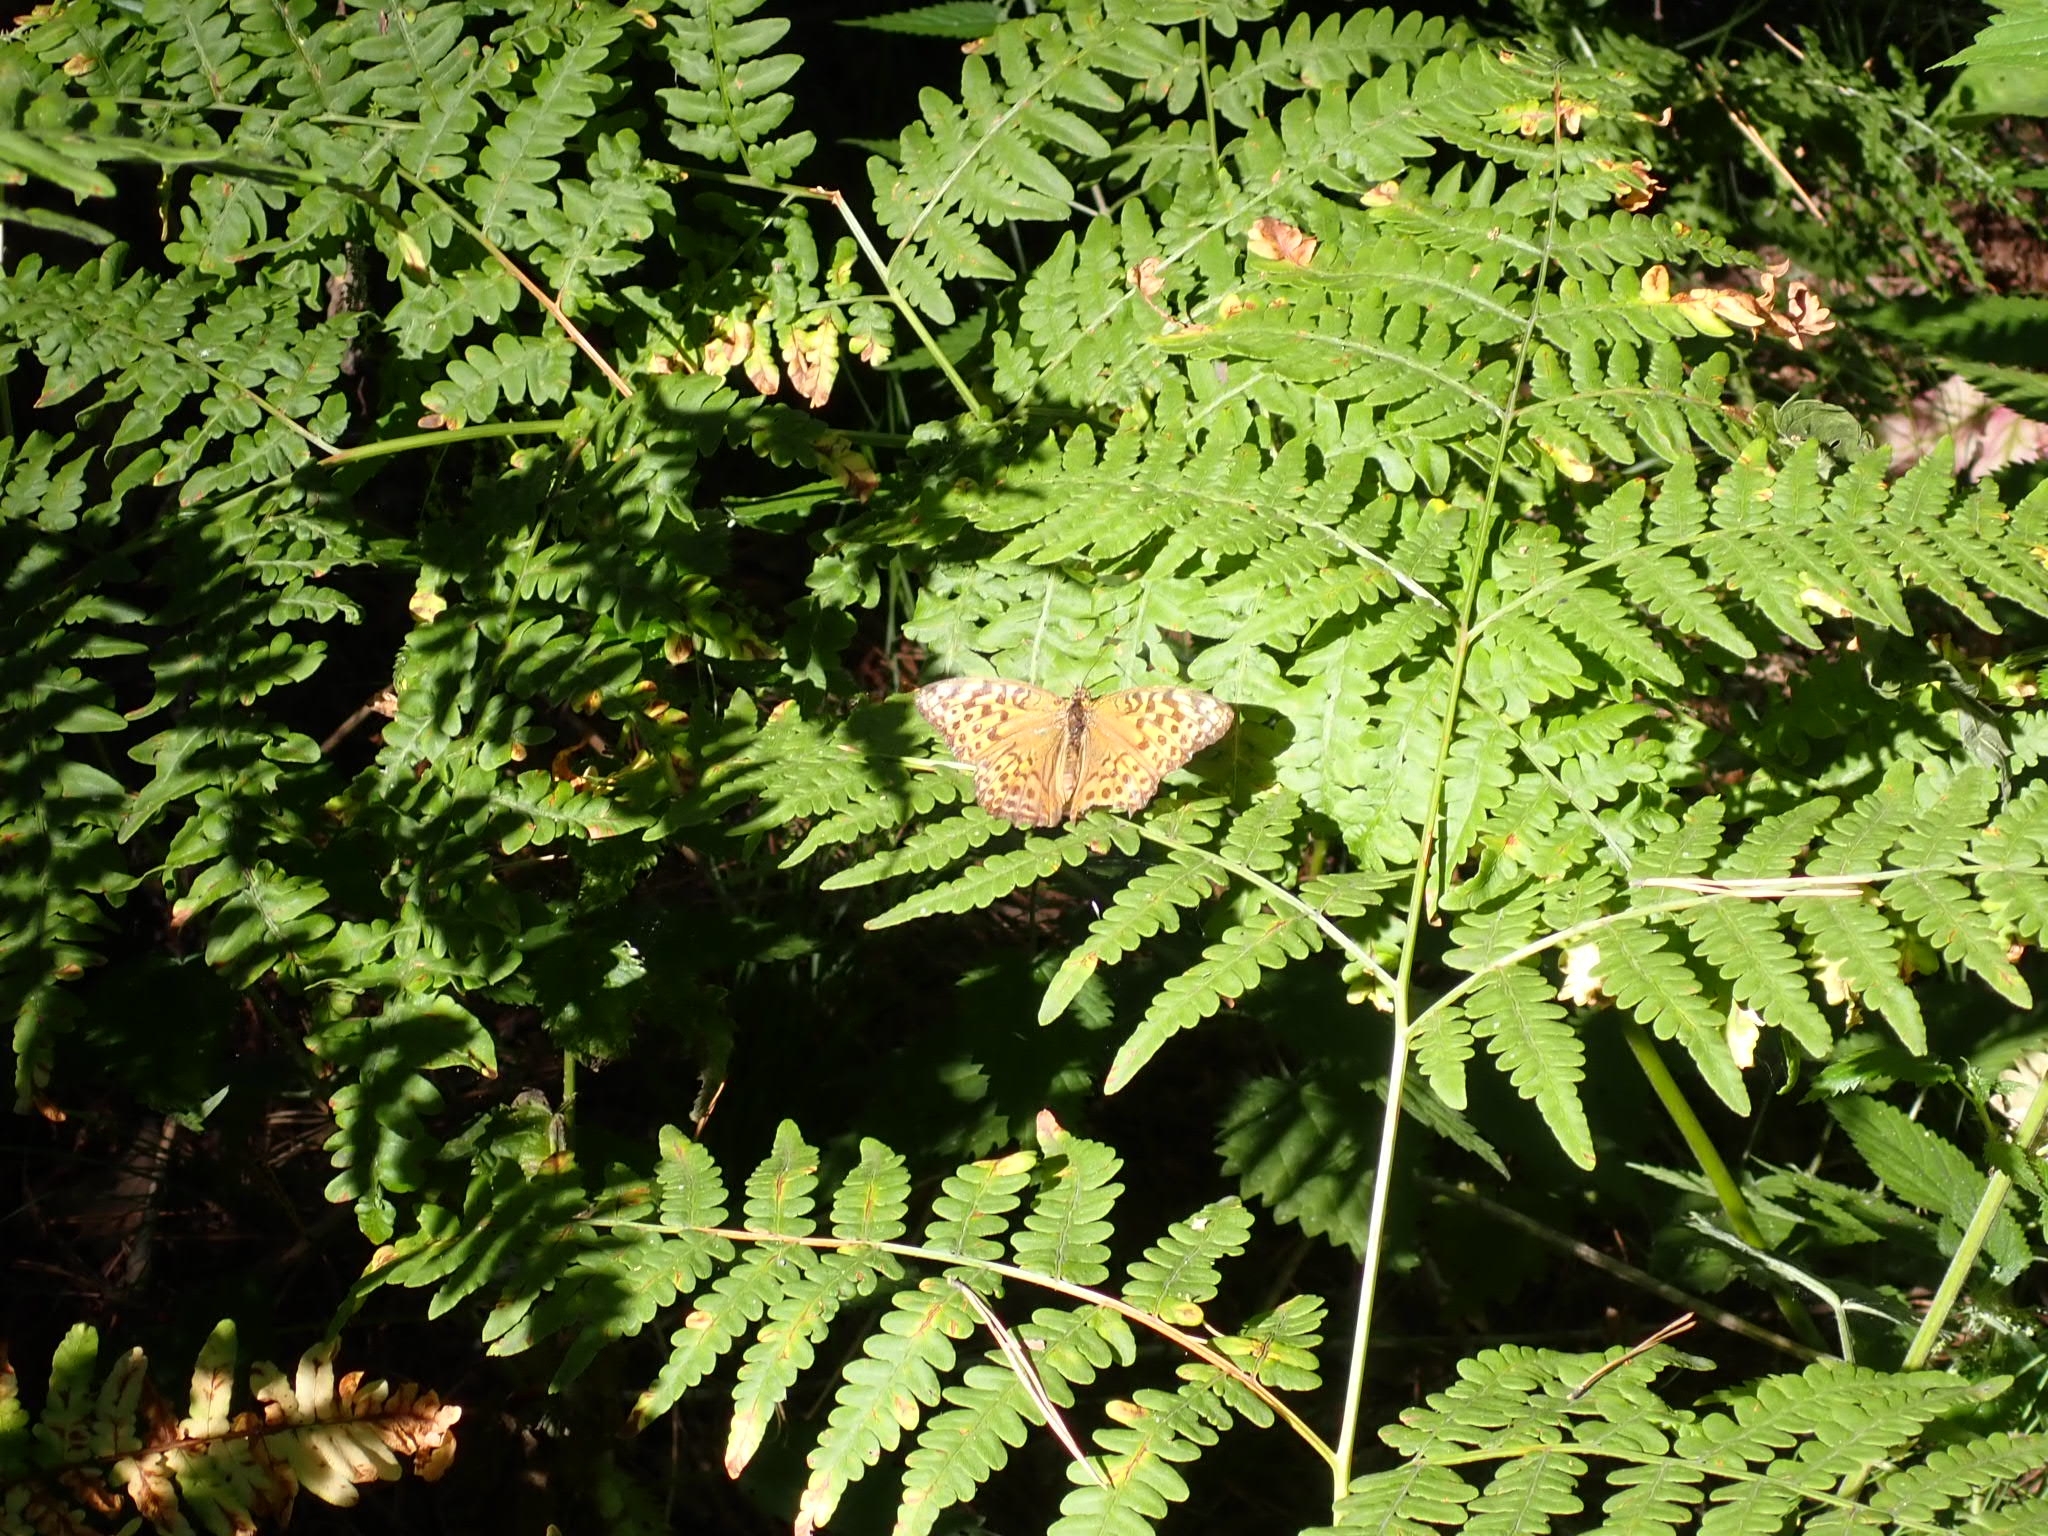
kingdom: Animalia
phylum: Arthropoda
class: Insecta
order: Lepidoptera
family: Nymphalidae
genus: Argynnis
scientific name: Argynnis paphia
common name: Silver-washed fritillary
